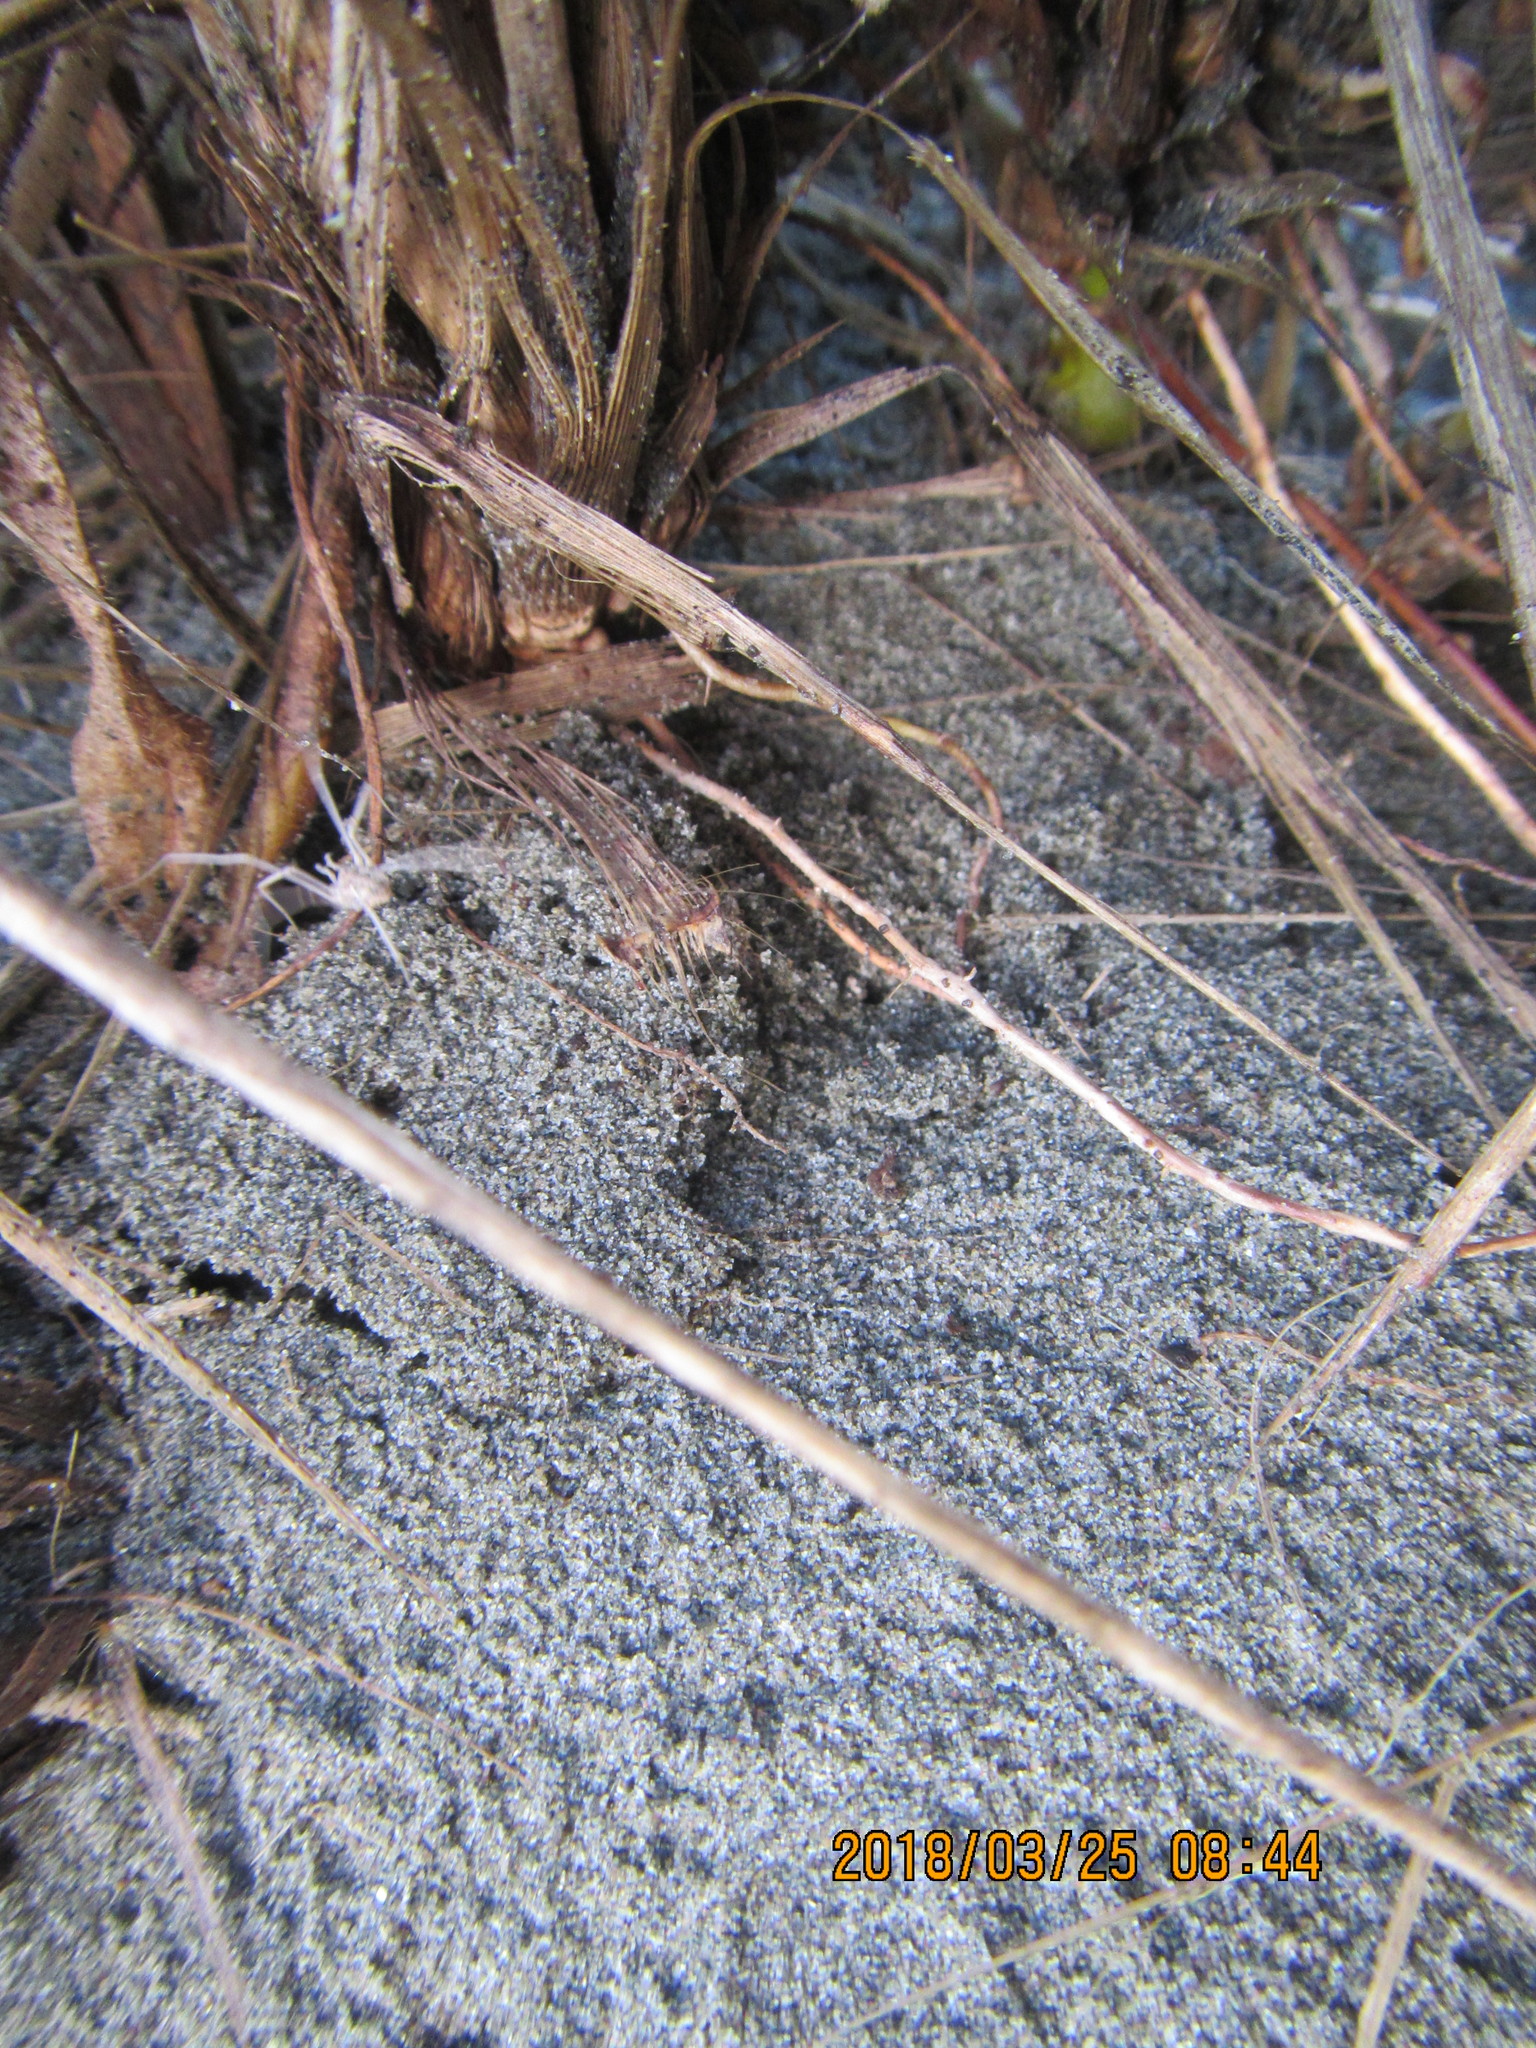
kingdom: Animalia
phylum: Arthropoda
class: Arachnida
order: Opiliones
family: Phalangiidae
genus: Phalangium
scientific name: Phalangium opilio
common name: Daddy longleg
